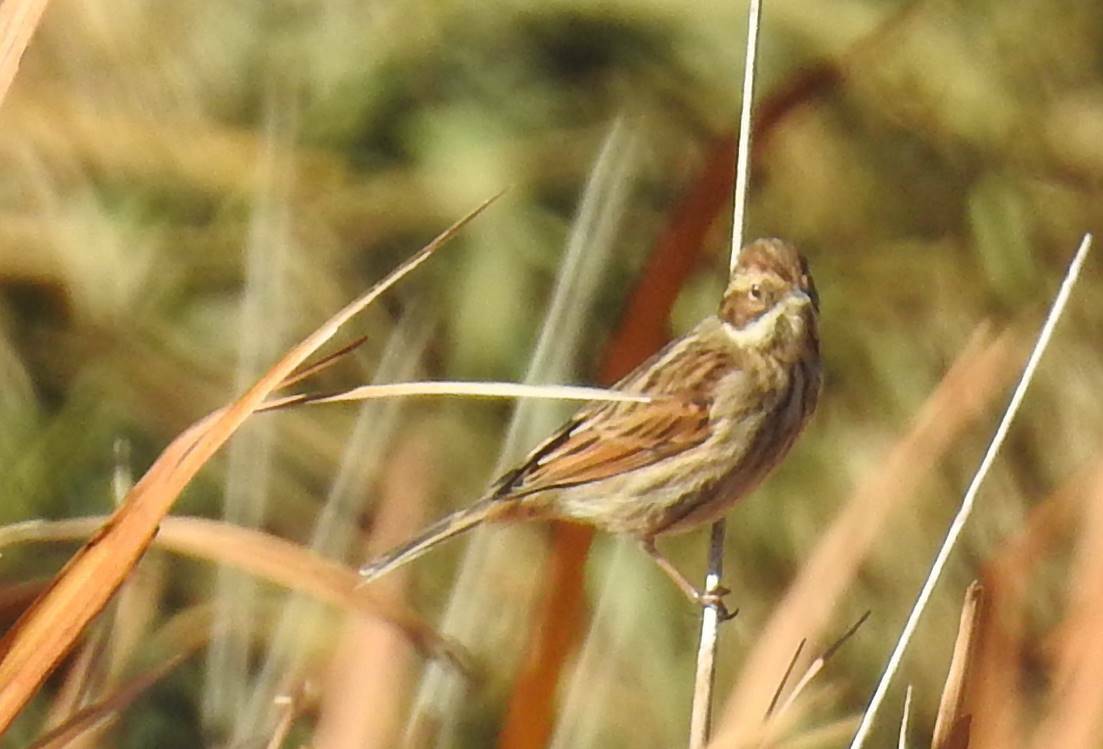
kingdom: Animalia
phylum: Chordata
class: Aves
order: Passeriformes
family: Emberizidae
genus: Emberiza
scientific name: Emberiza schoeniclus
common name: Reed bunting
